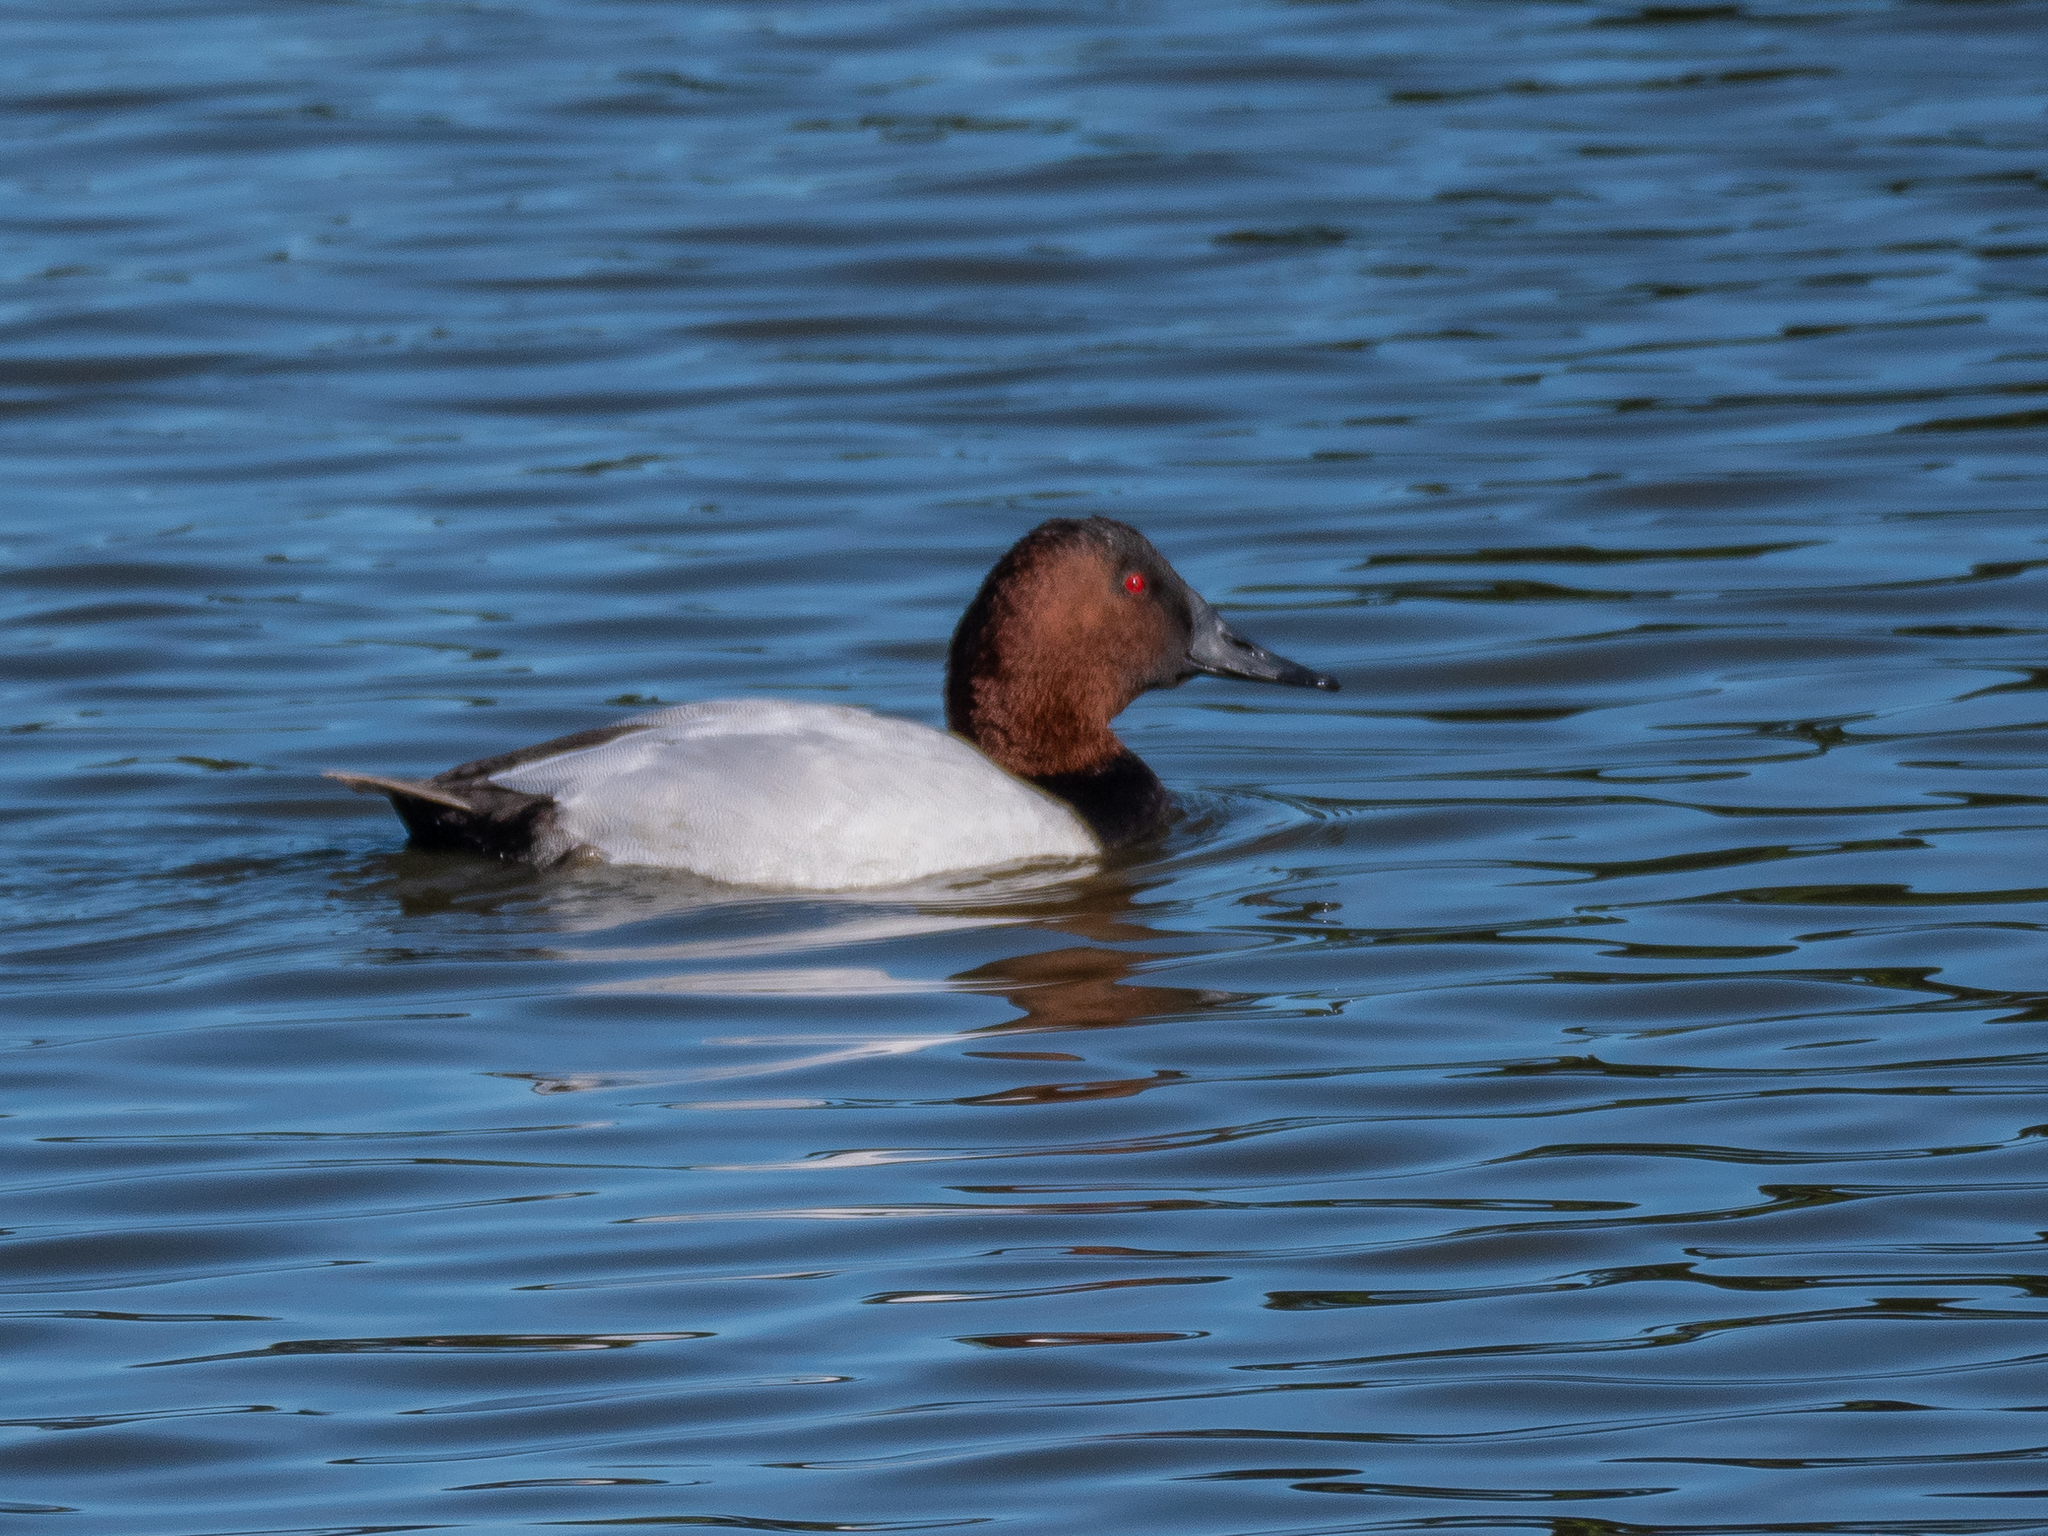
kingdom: Animalia
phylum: Chordata
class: Aves
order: Anseriformes
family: Anatidae
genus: Aythya
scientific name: Aythya valisineria
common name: Canvasback
